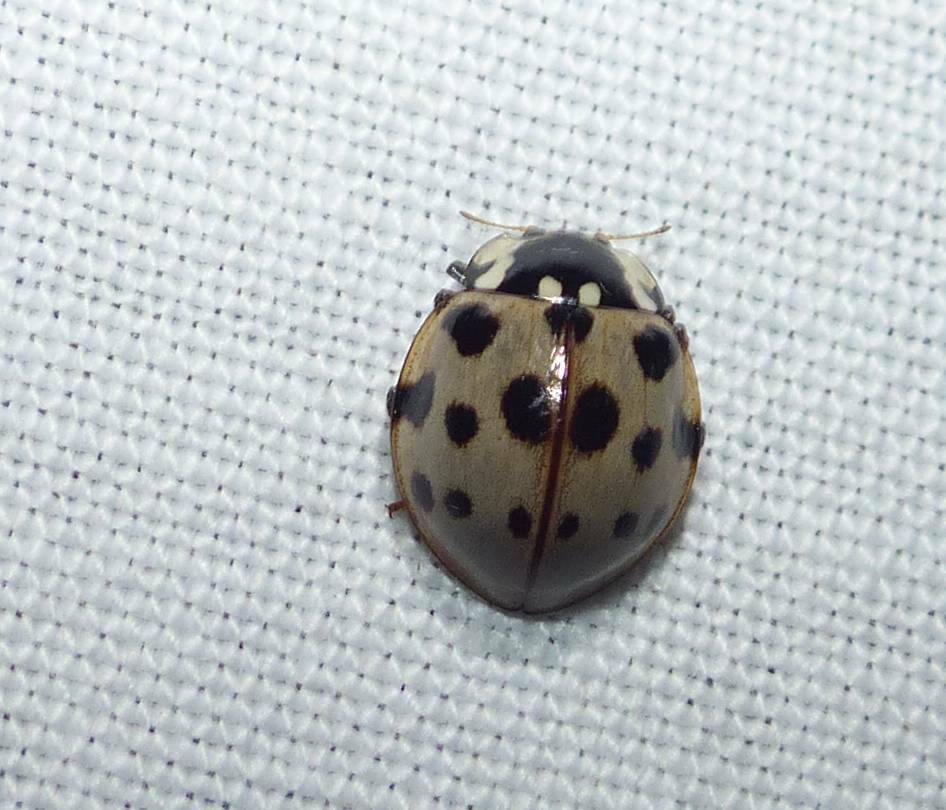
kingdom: Animalia
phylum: Arthropoda
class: Insecta
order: Coleoptera
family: Coccinellidae
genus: Anatis
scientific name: Anatis labiculata
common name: Fifteen-spotted lady beetle
